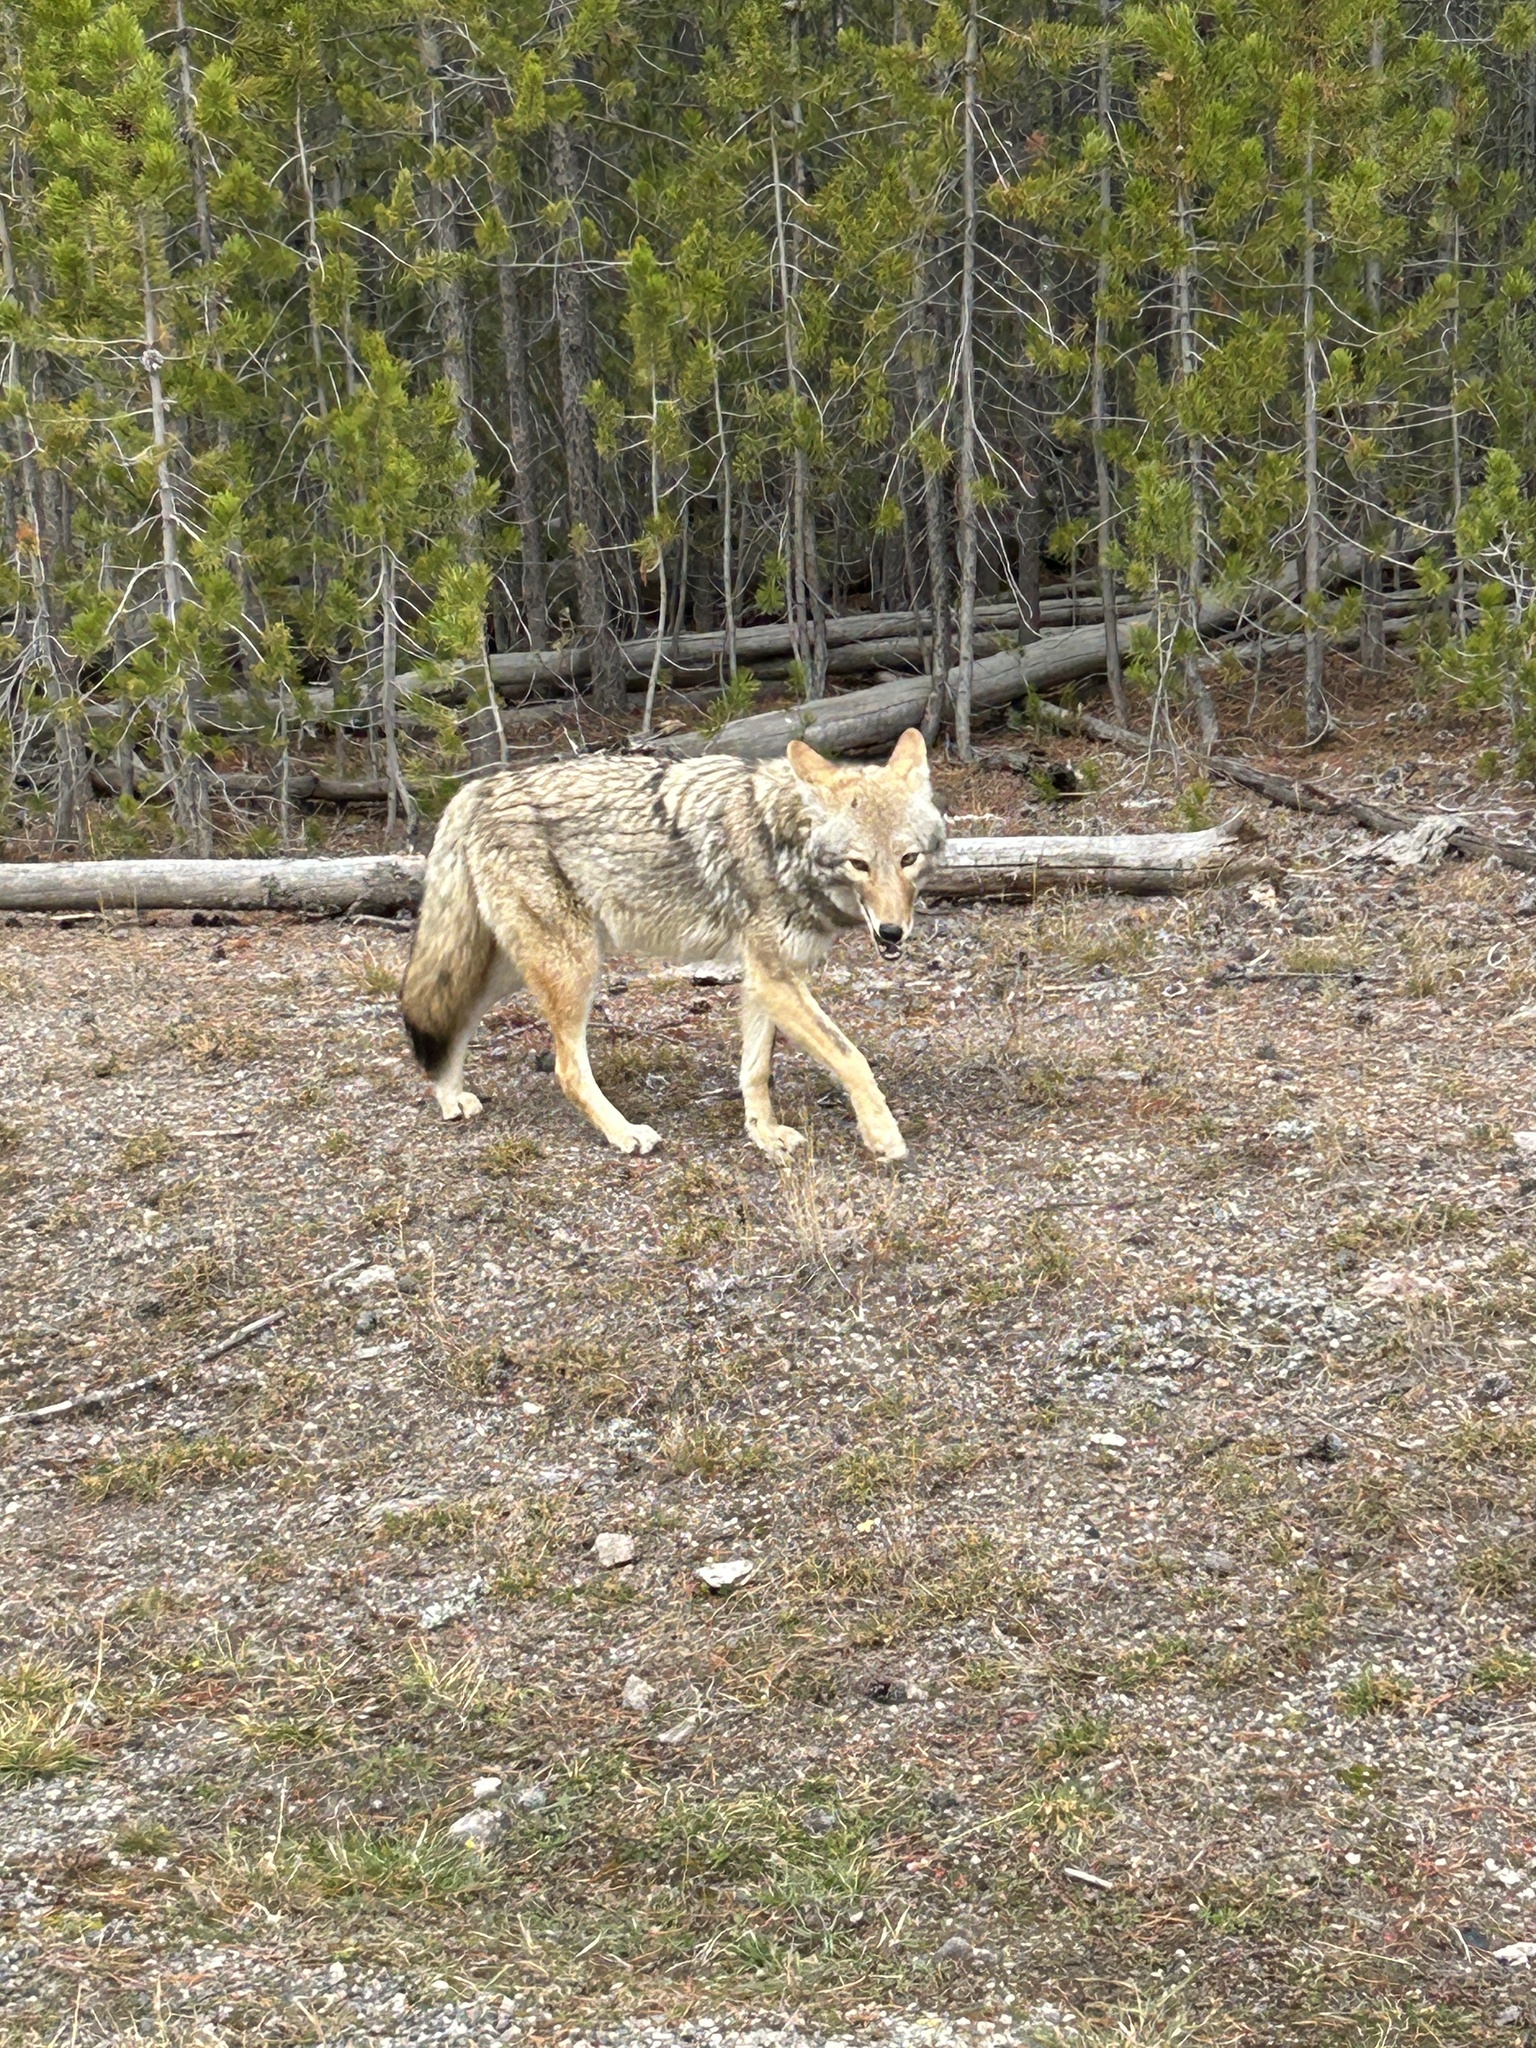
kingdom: Animalia
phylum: Chordata
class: Mammalia
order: Carnivora
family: Canidae
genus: Canis
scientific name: Canis latrans
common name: Coyote
